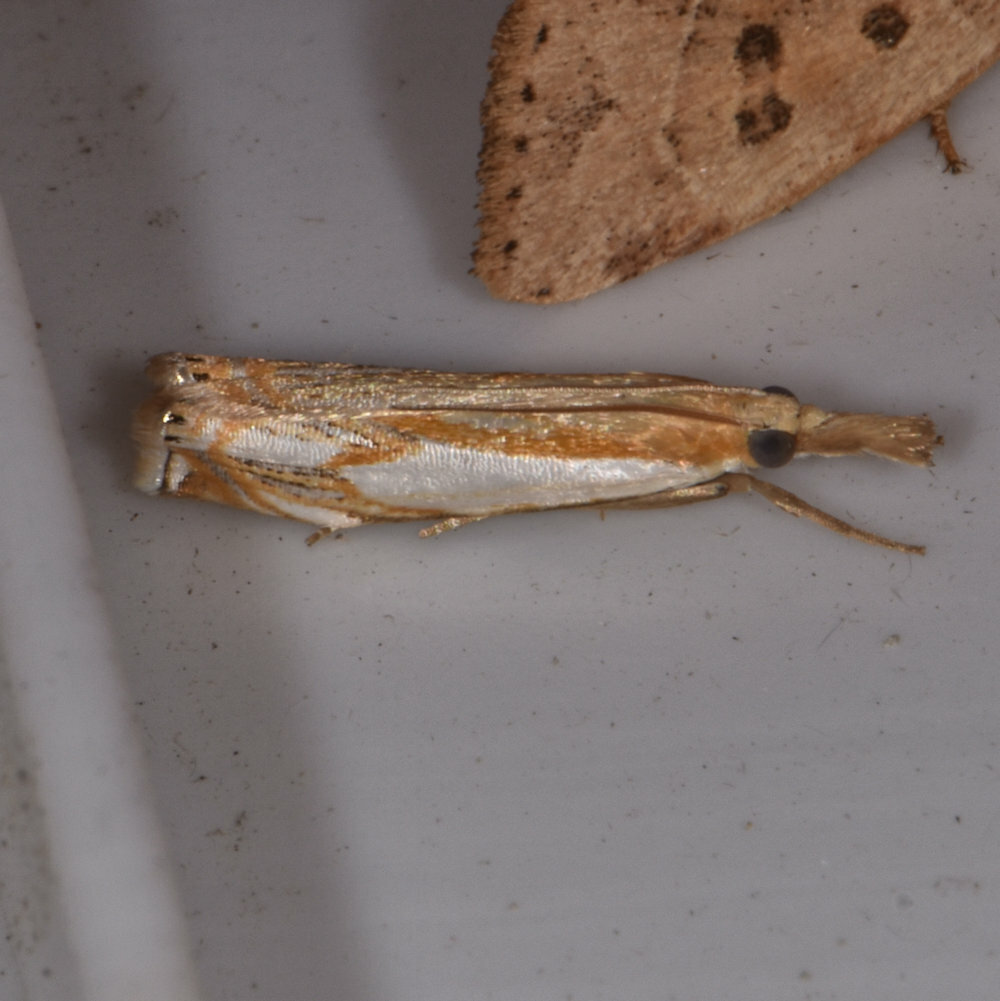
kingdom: Animalia
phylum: Arthropoda
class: Insecta
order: Lepidoptera
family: Crambidae
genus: Crambus
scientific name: Crambus agitatellus
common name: Double-banded grass-veneer
